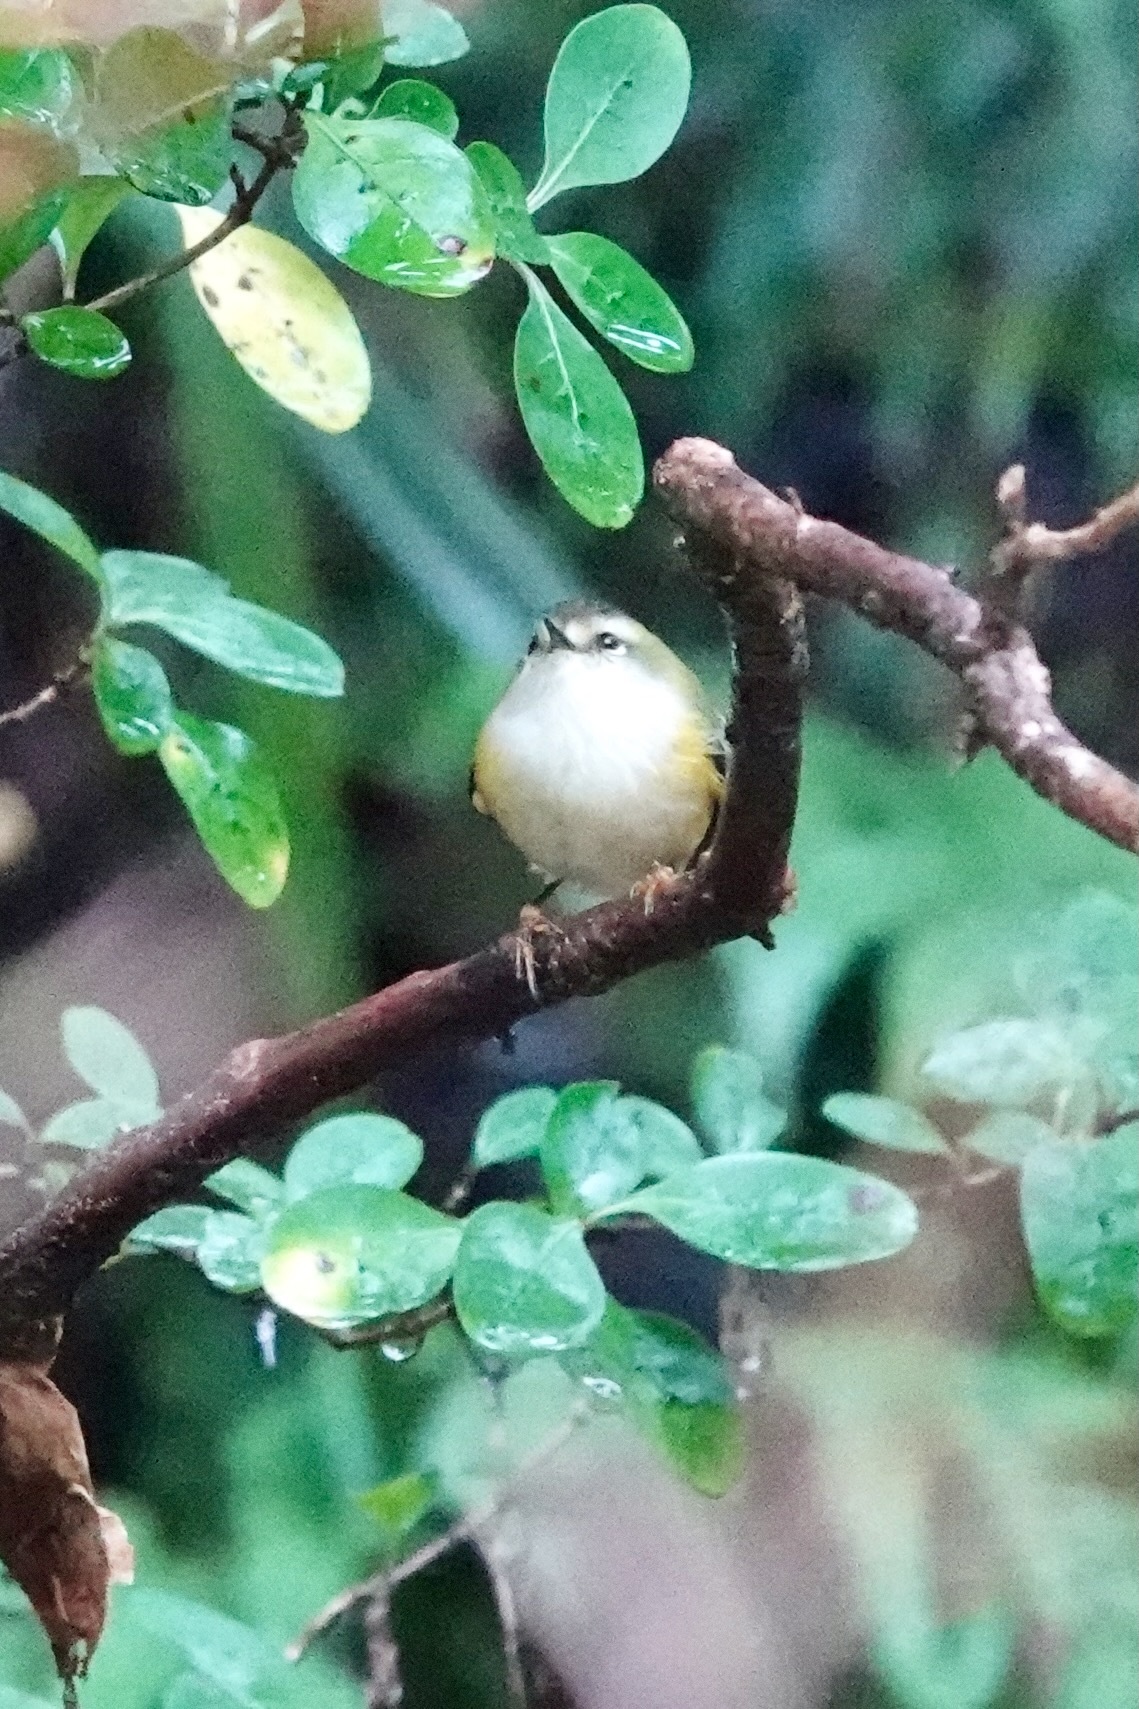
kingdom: Animalia
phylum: Chordata
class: Aves
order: Passeriformes
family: Acanthisittidae
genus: Acanthisitta
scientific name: Acanthisitta chloris
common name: Rifleman
